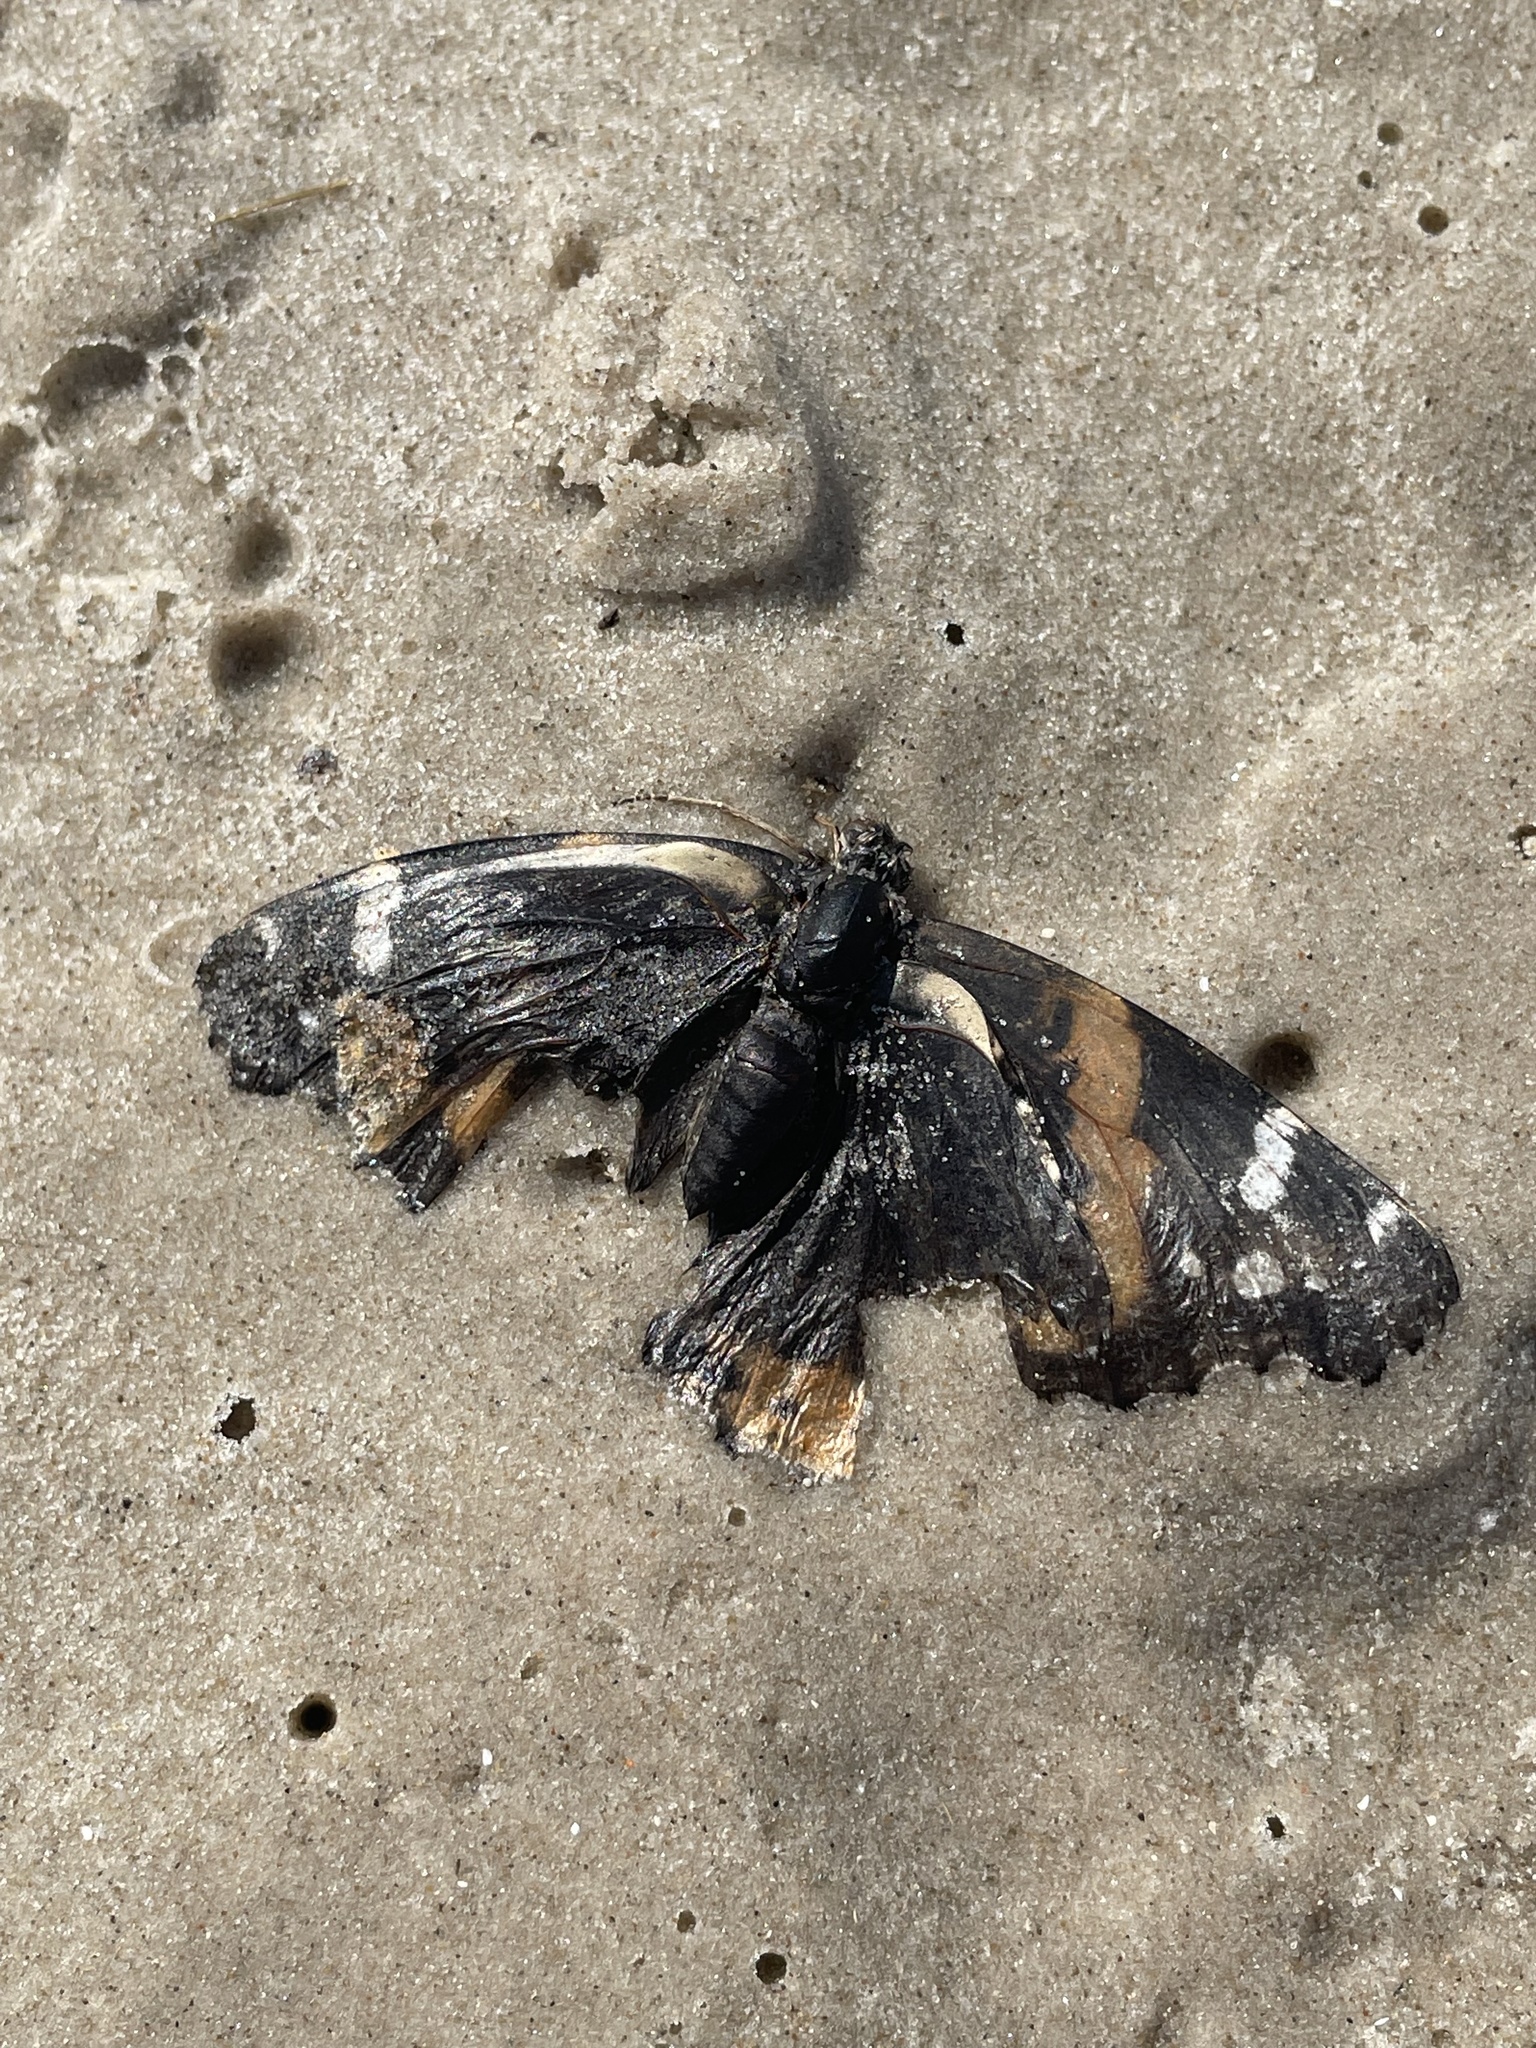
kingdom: Animalia
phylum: Arthropoda
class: Insecta
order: Lepidoptera
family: Nymphalidae
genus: Vanessa
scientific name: Vanessa atalanta
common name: Red admiral
